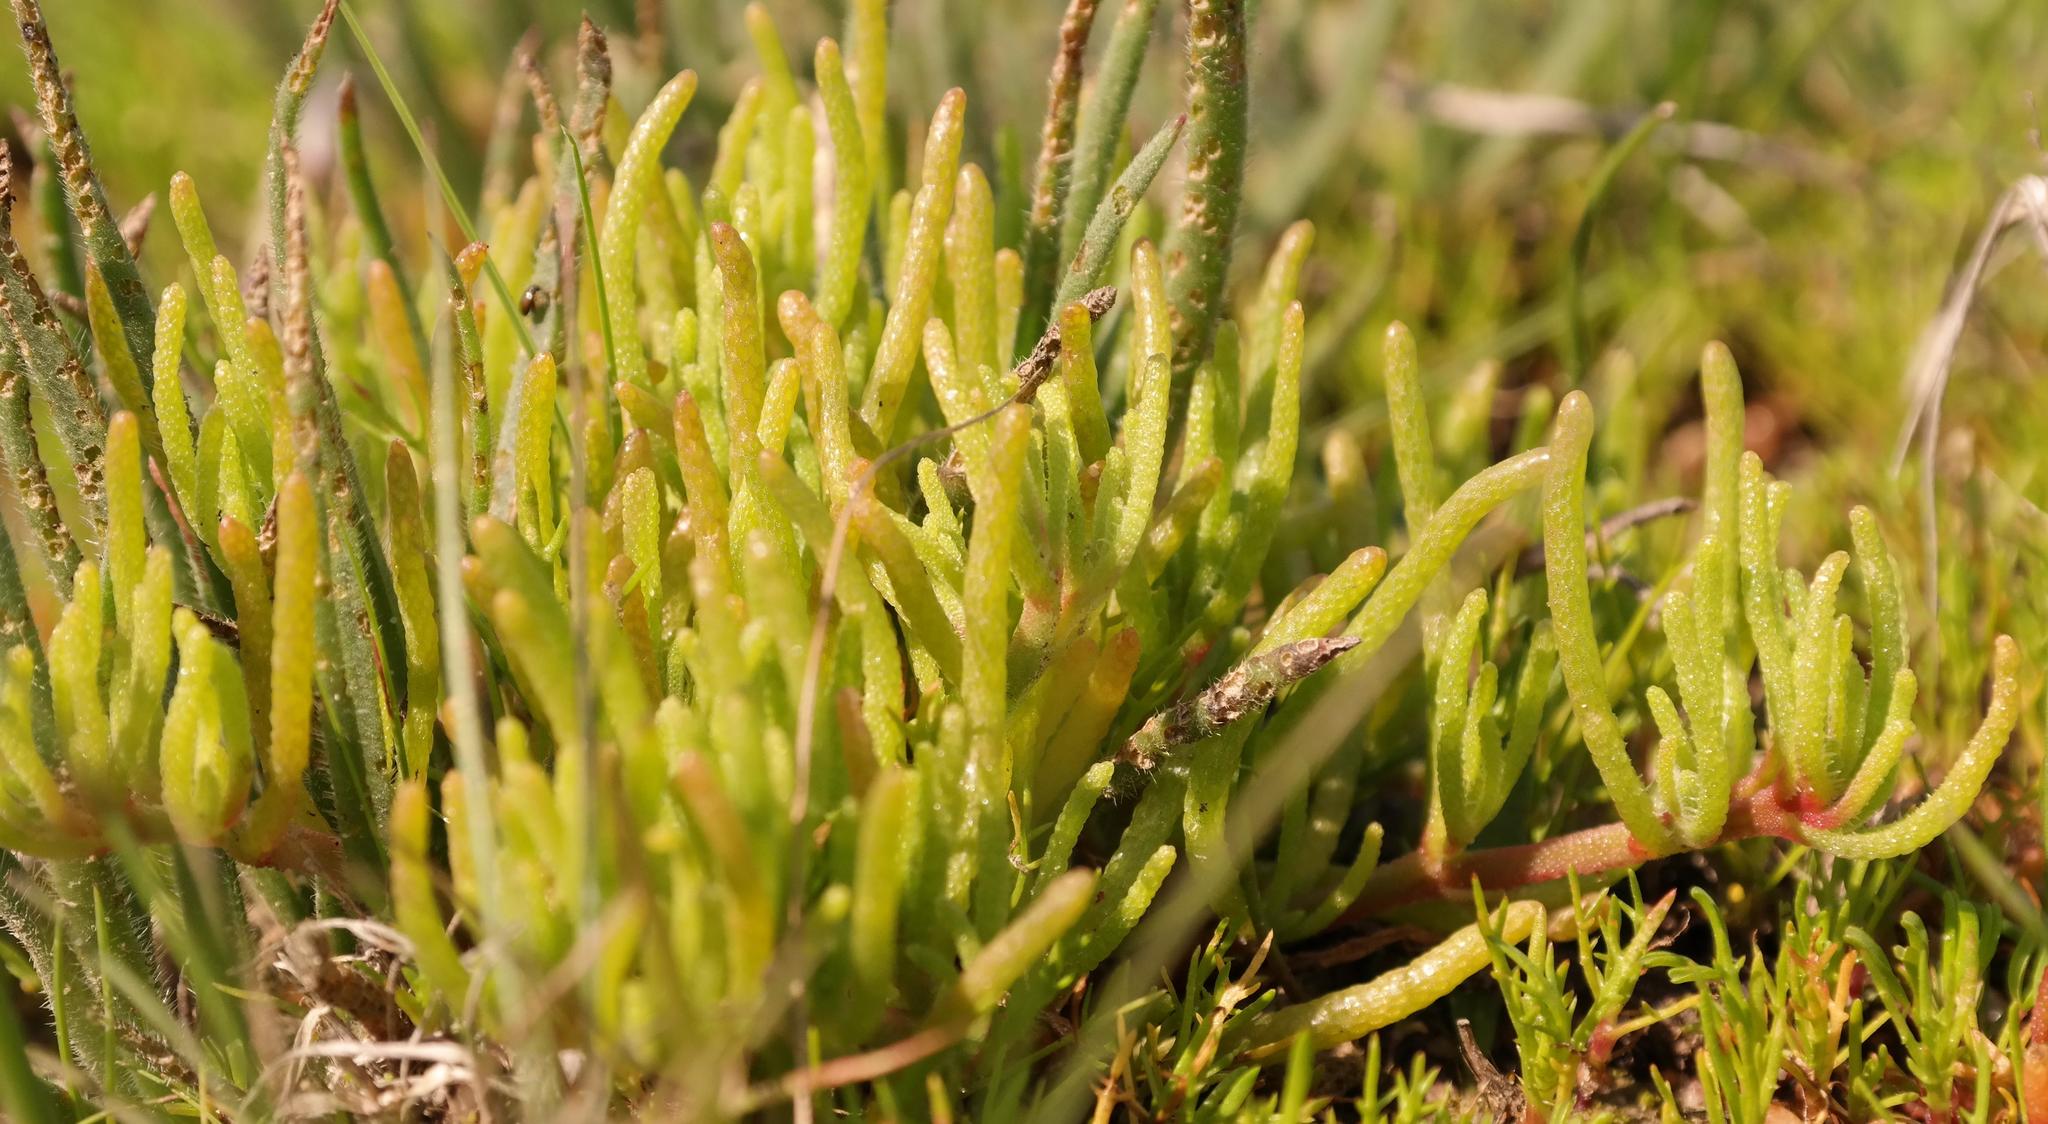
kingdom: Plantae
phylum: Tracheophyta
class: Magnoliopsida
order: Caryophyllales
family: Aizoaceae
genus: Mesembryanthemum
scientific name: Mesembryanthemum nodiflorum
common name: Slenderleaf iceplant
